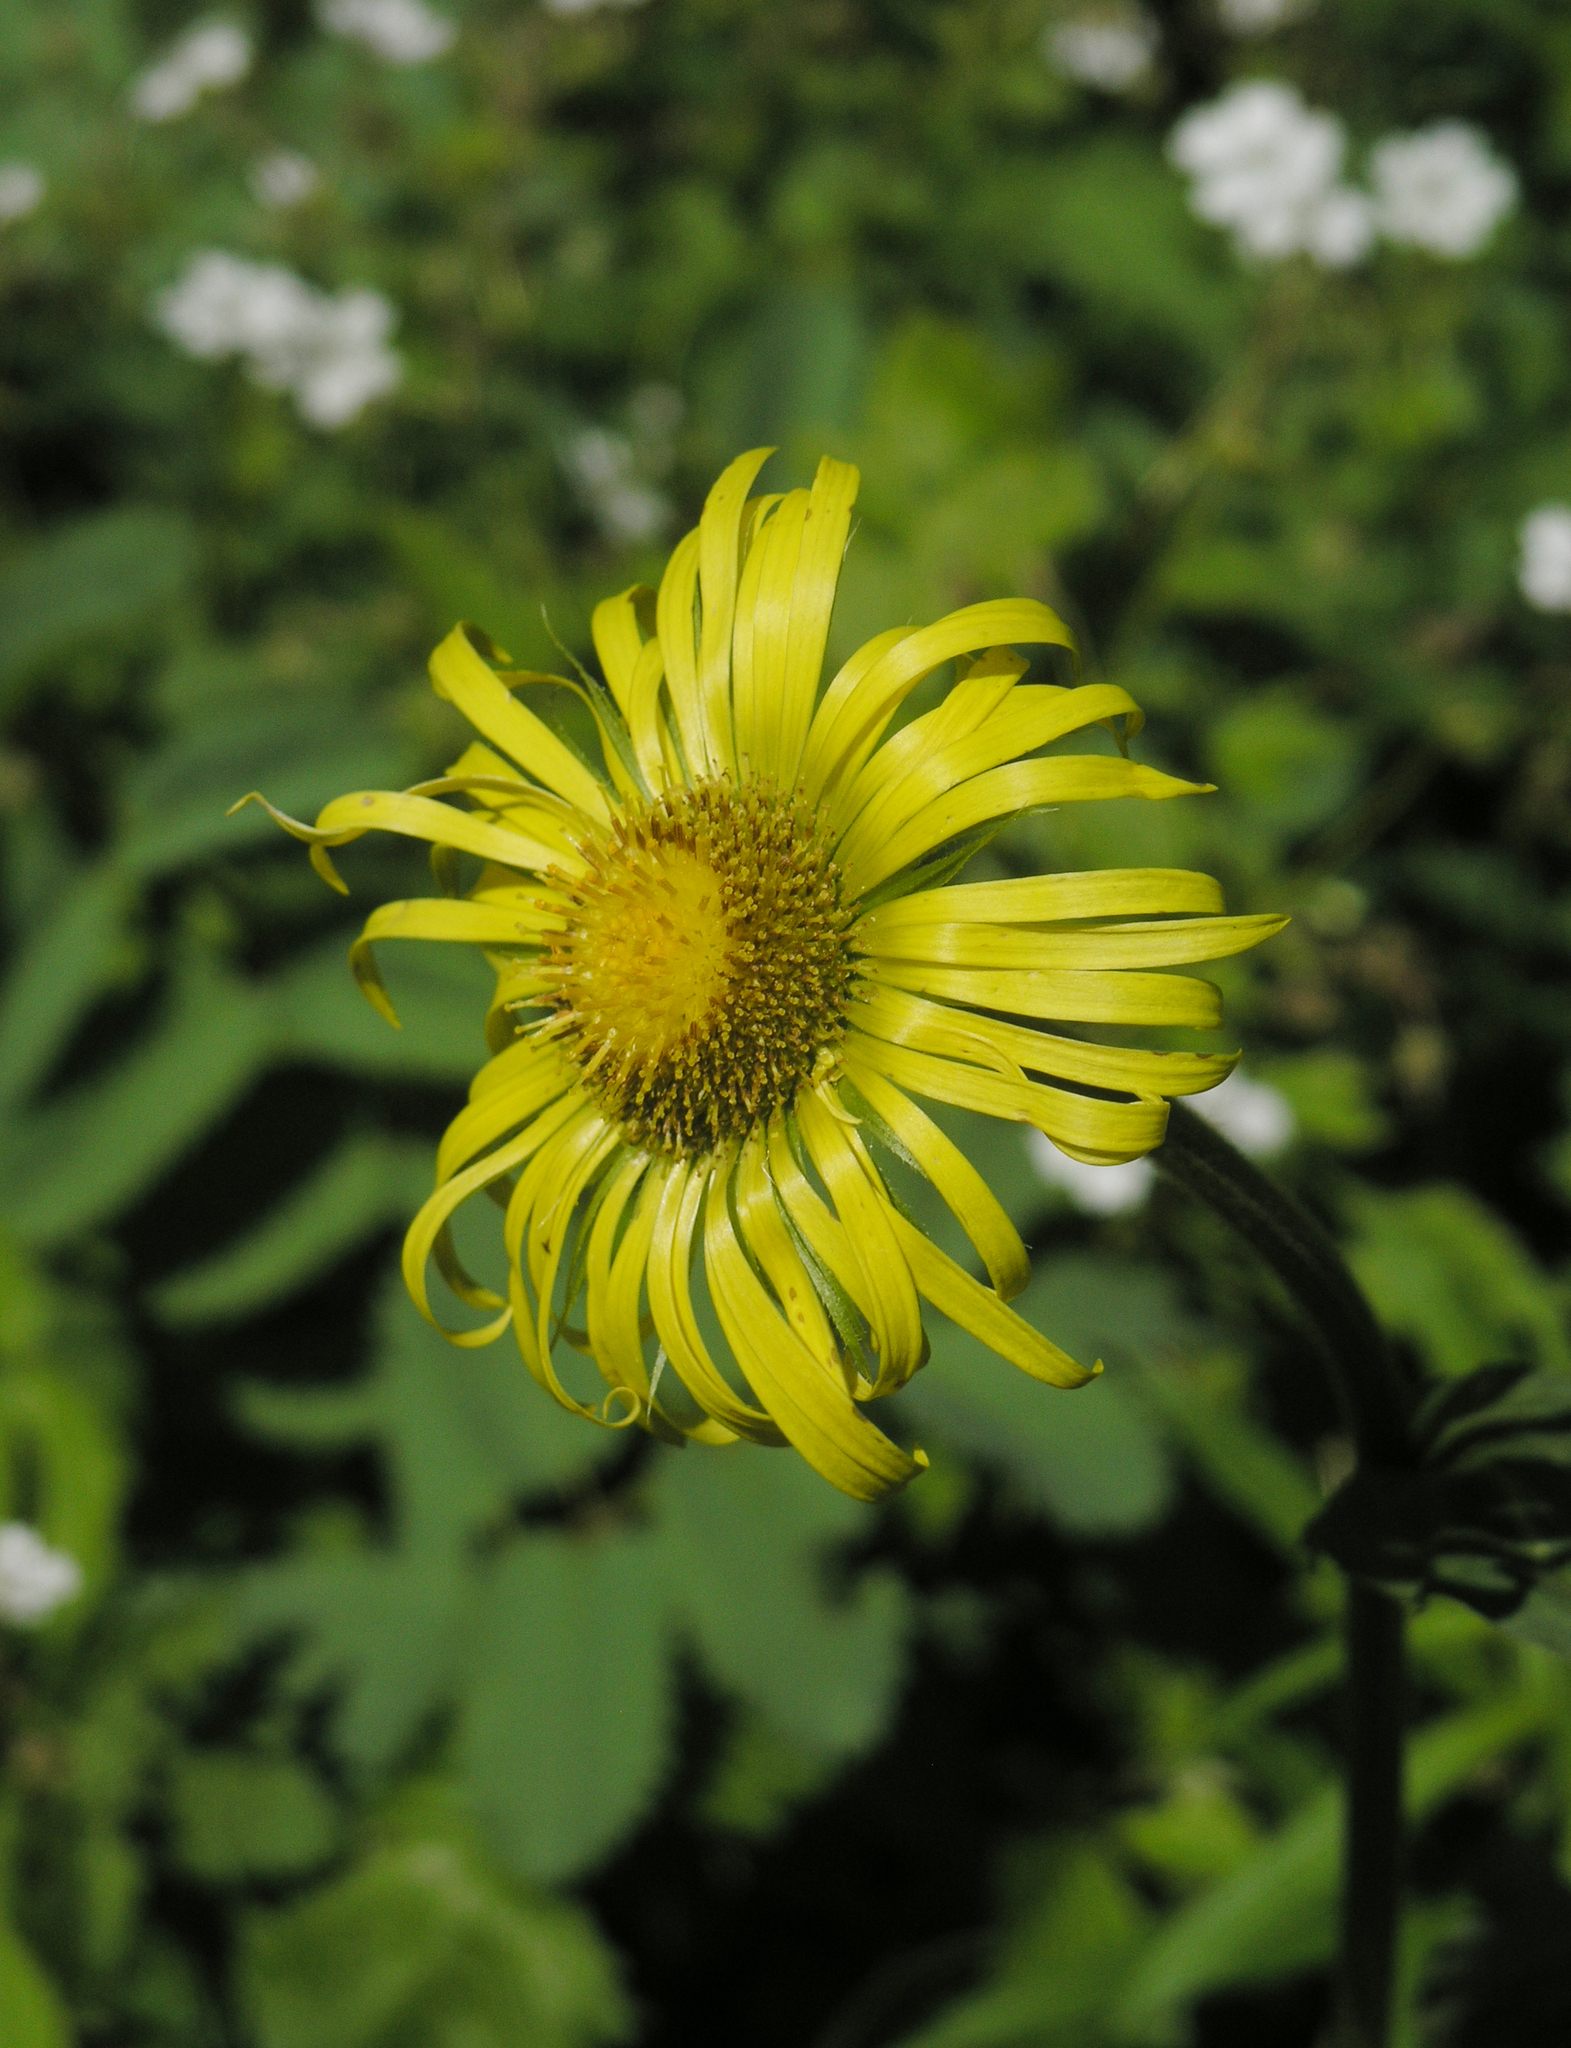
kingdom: Plantae
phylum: Tracheophyta
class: Magnoliopsida
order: Asterales
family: Asteraceae
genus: Doronicum
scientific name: Doronicum turkestanicum
